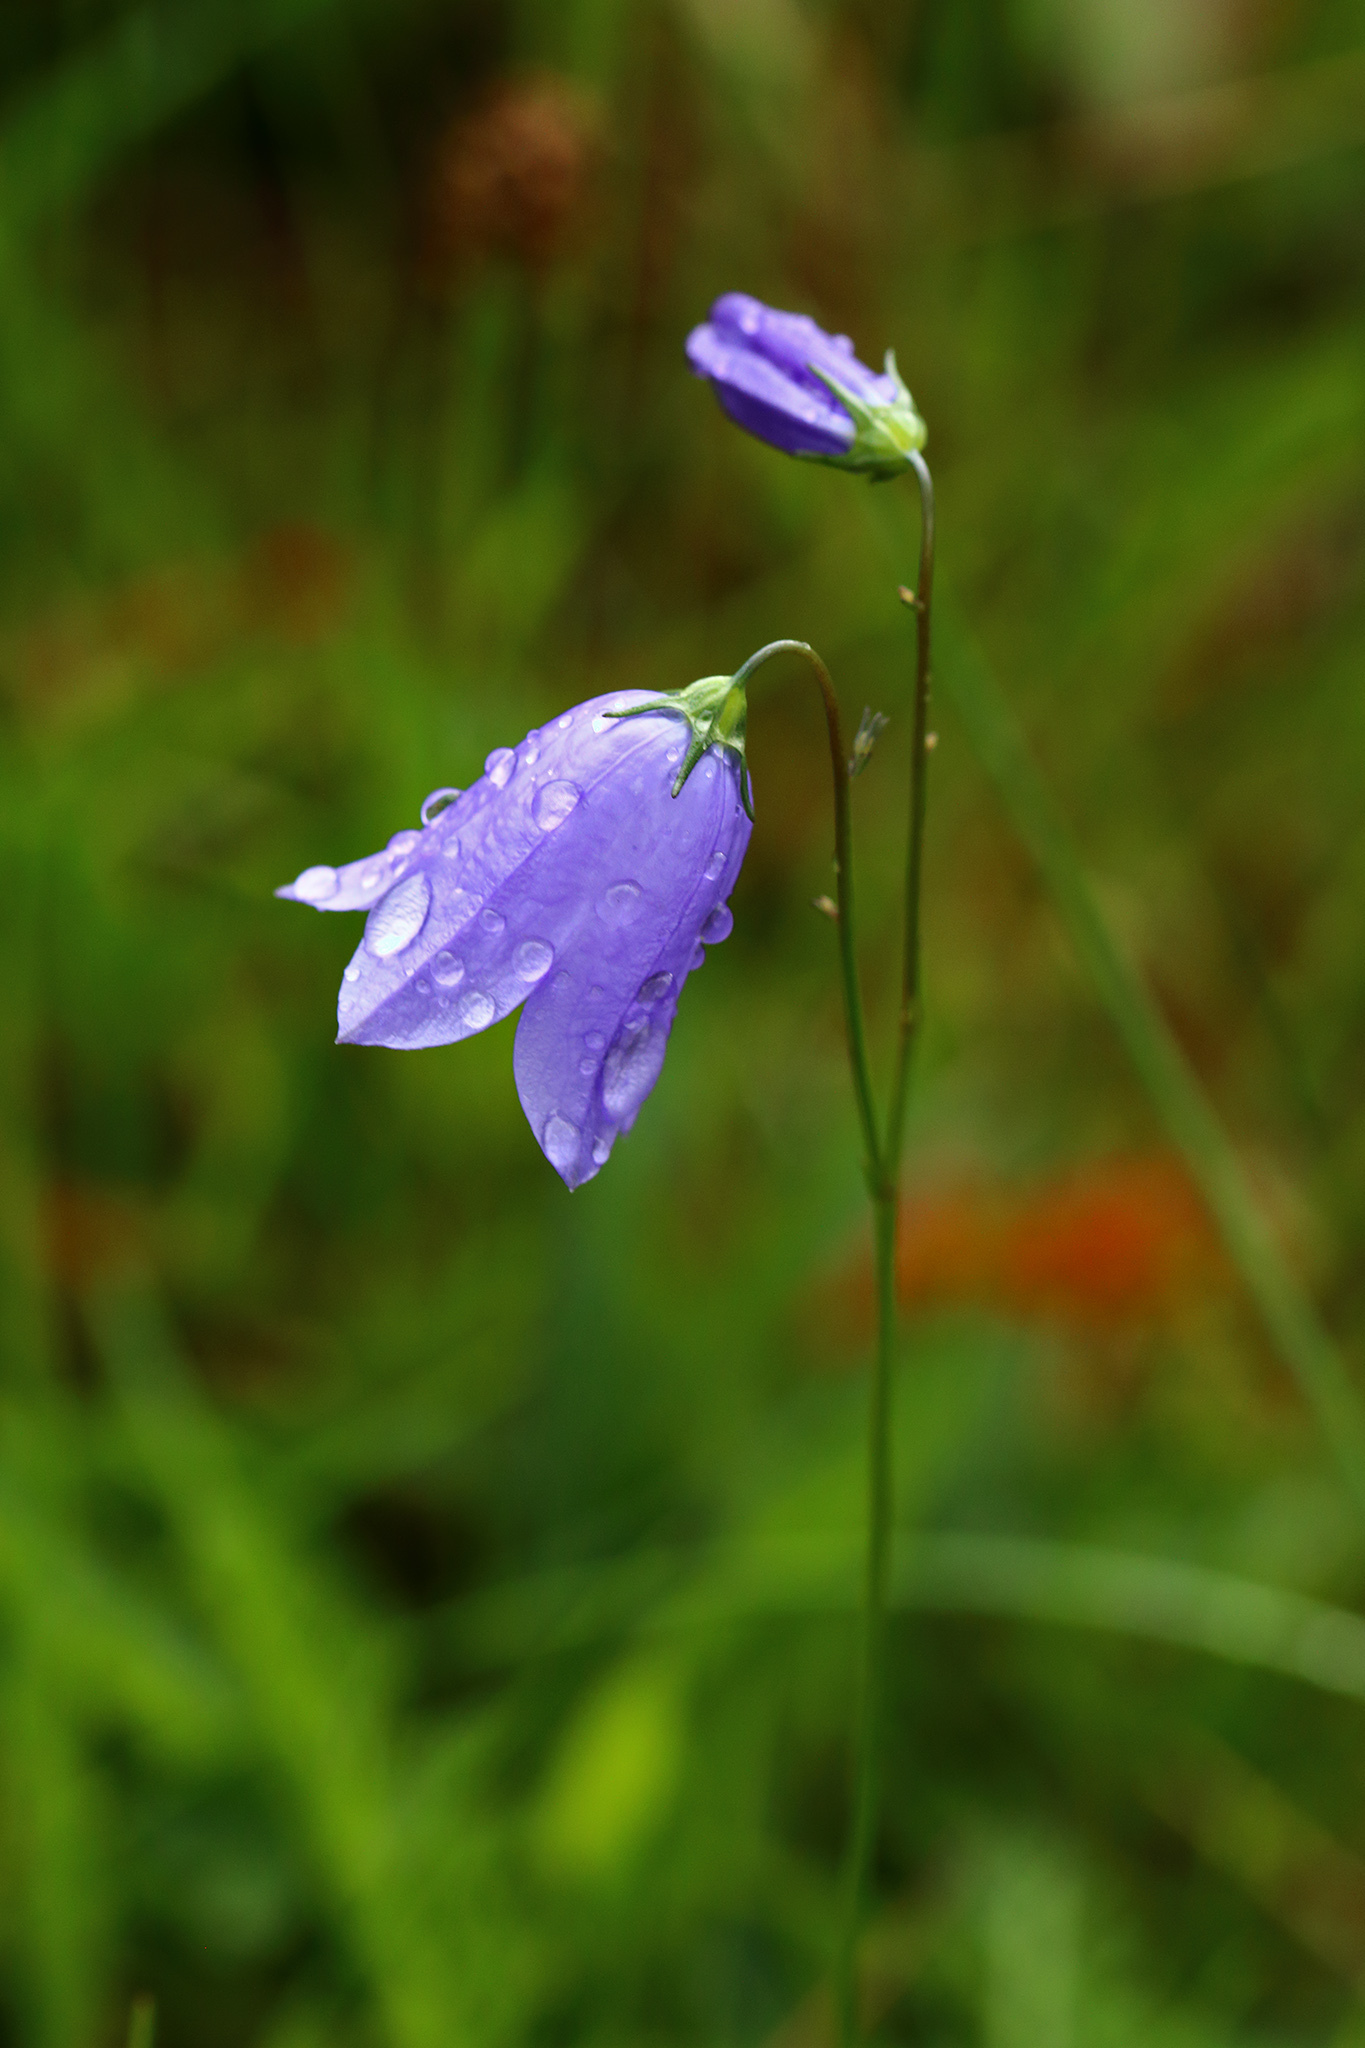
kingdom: Plantae
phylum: Tracheophyta
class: Magnoliopsida
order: Asterales
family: Campanulaceae
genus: Campanula
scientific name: Campanula rotundifolia
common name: Harebell
